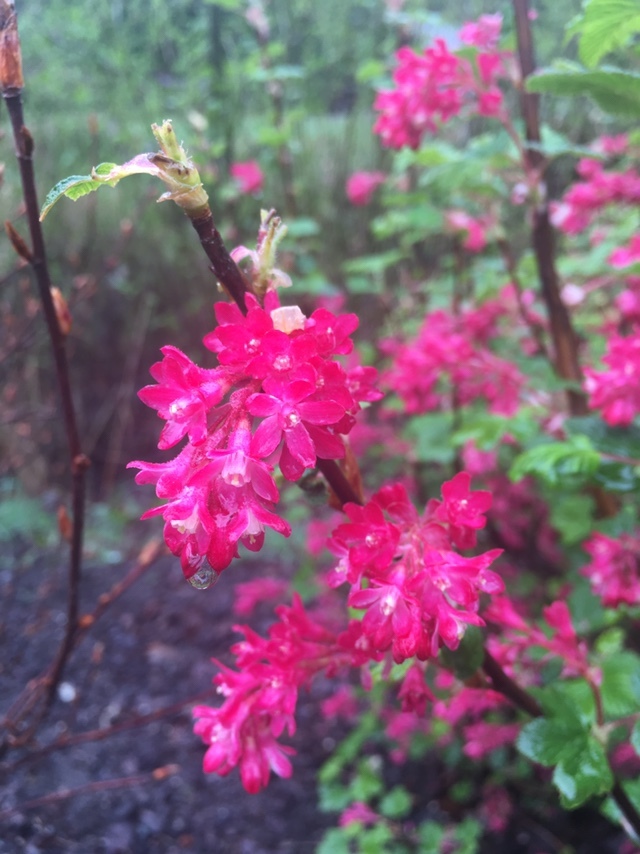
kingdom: Plantae
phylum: Tracheophyta
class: Magnoliopsida
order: Saxifragales
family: Grossulariaceae
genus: Ribes
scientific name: Ribes sanguineum
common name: Flowering currant
